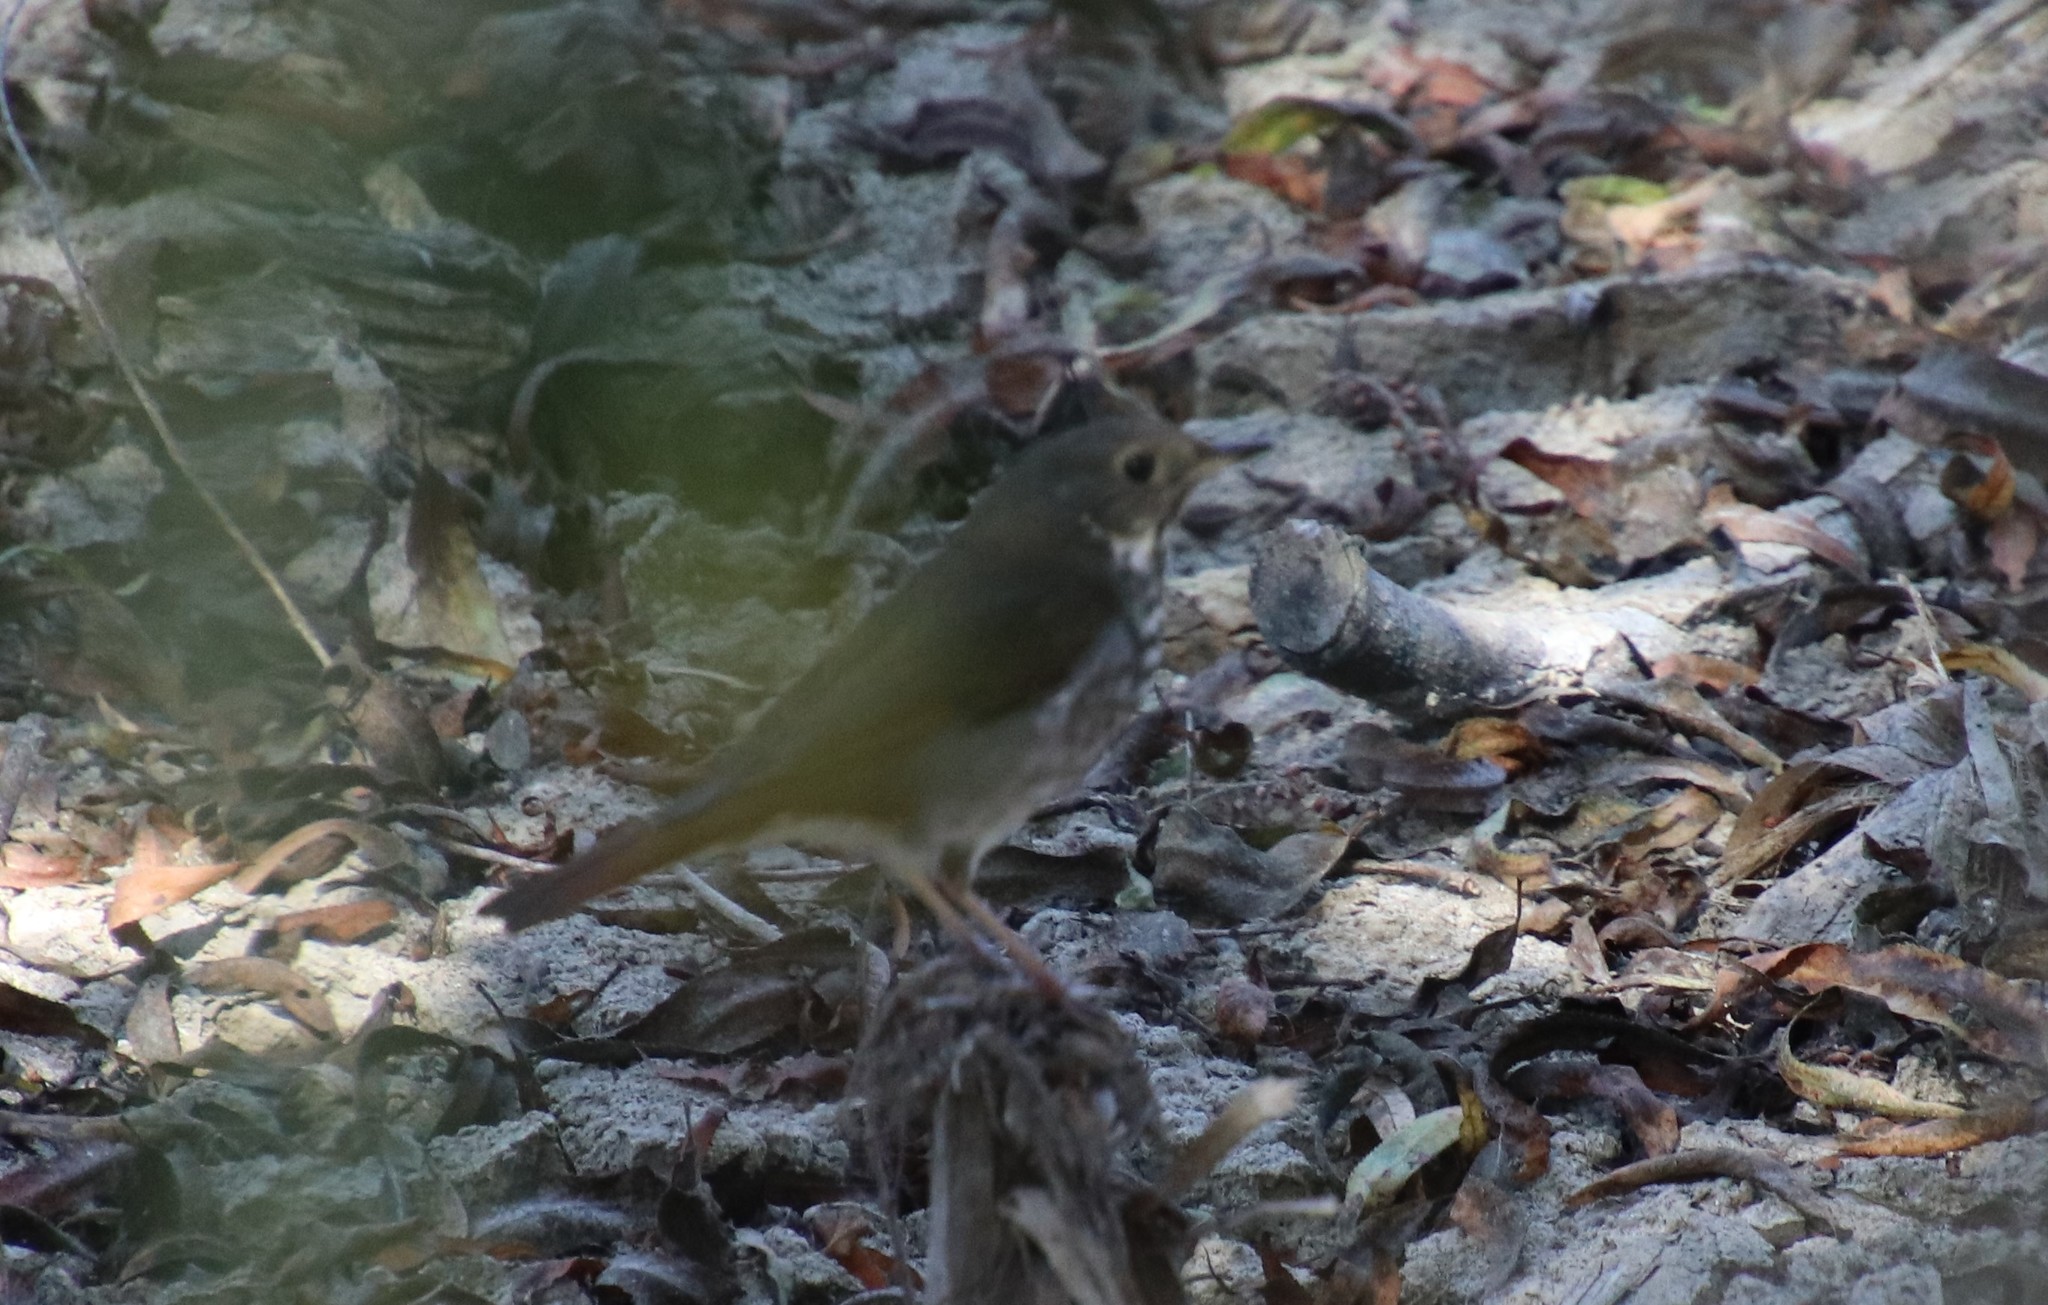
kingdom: Animalia
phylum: Chordata
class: Aves
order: Passeriformes
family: Turdidae
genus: Catharus
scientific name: Catharus guttatus
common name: Hermit thrush
